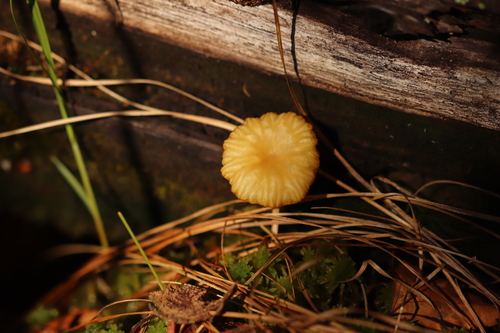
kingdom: Fungi
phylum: Basidiomycota
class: Agaricomycetes
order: Agaricales
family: Hygrophoraceae
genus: Lichenomphalia
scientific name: Lichenomphalia umbellifera
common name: Heath navel
